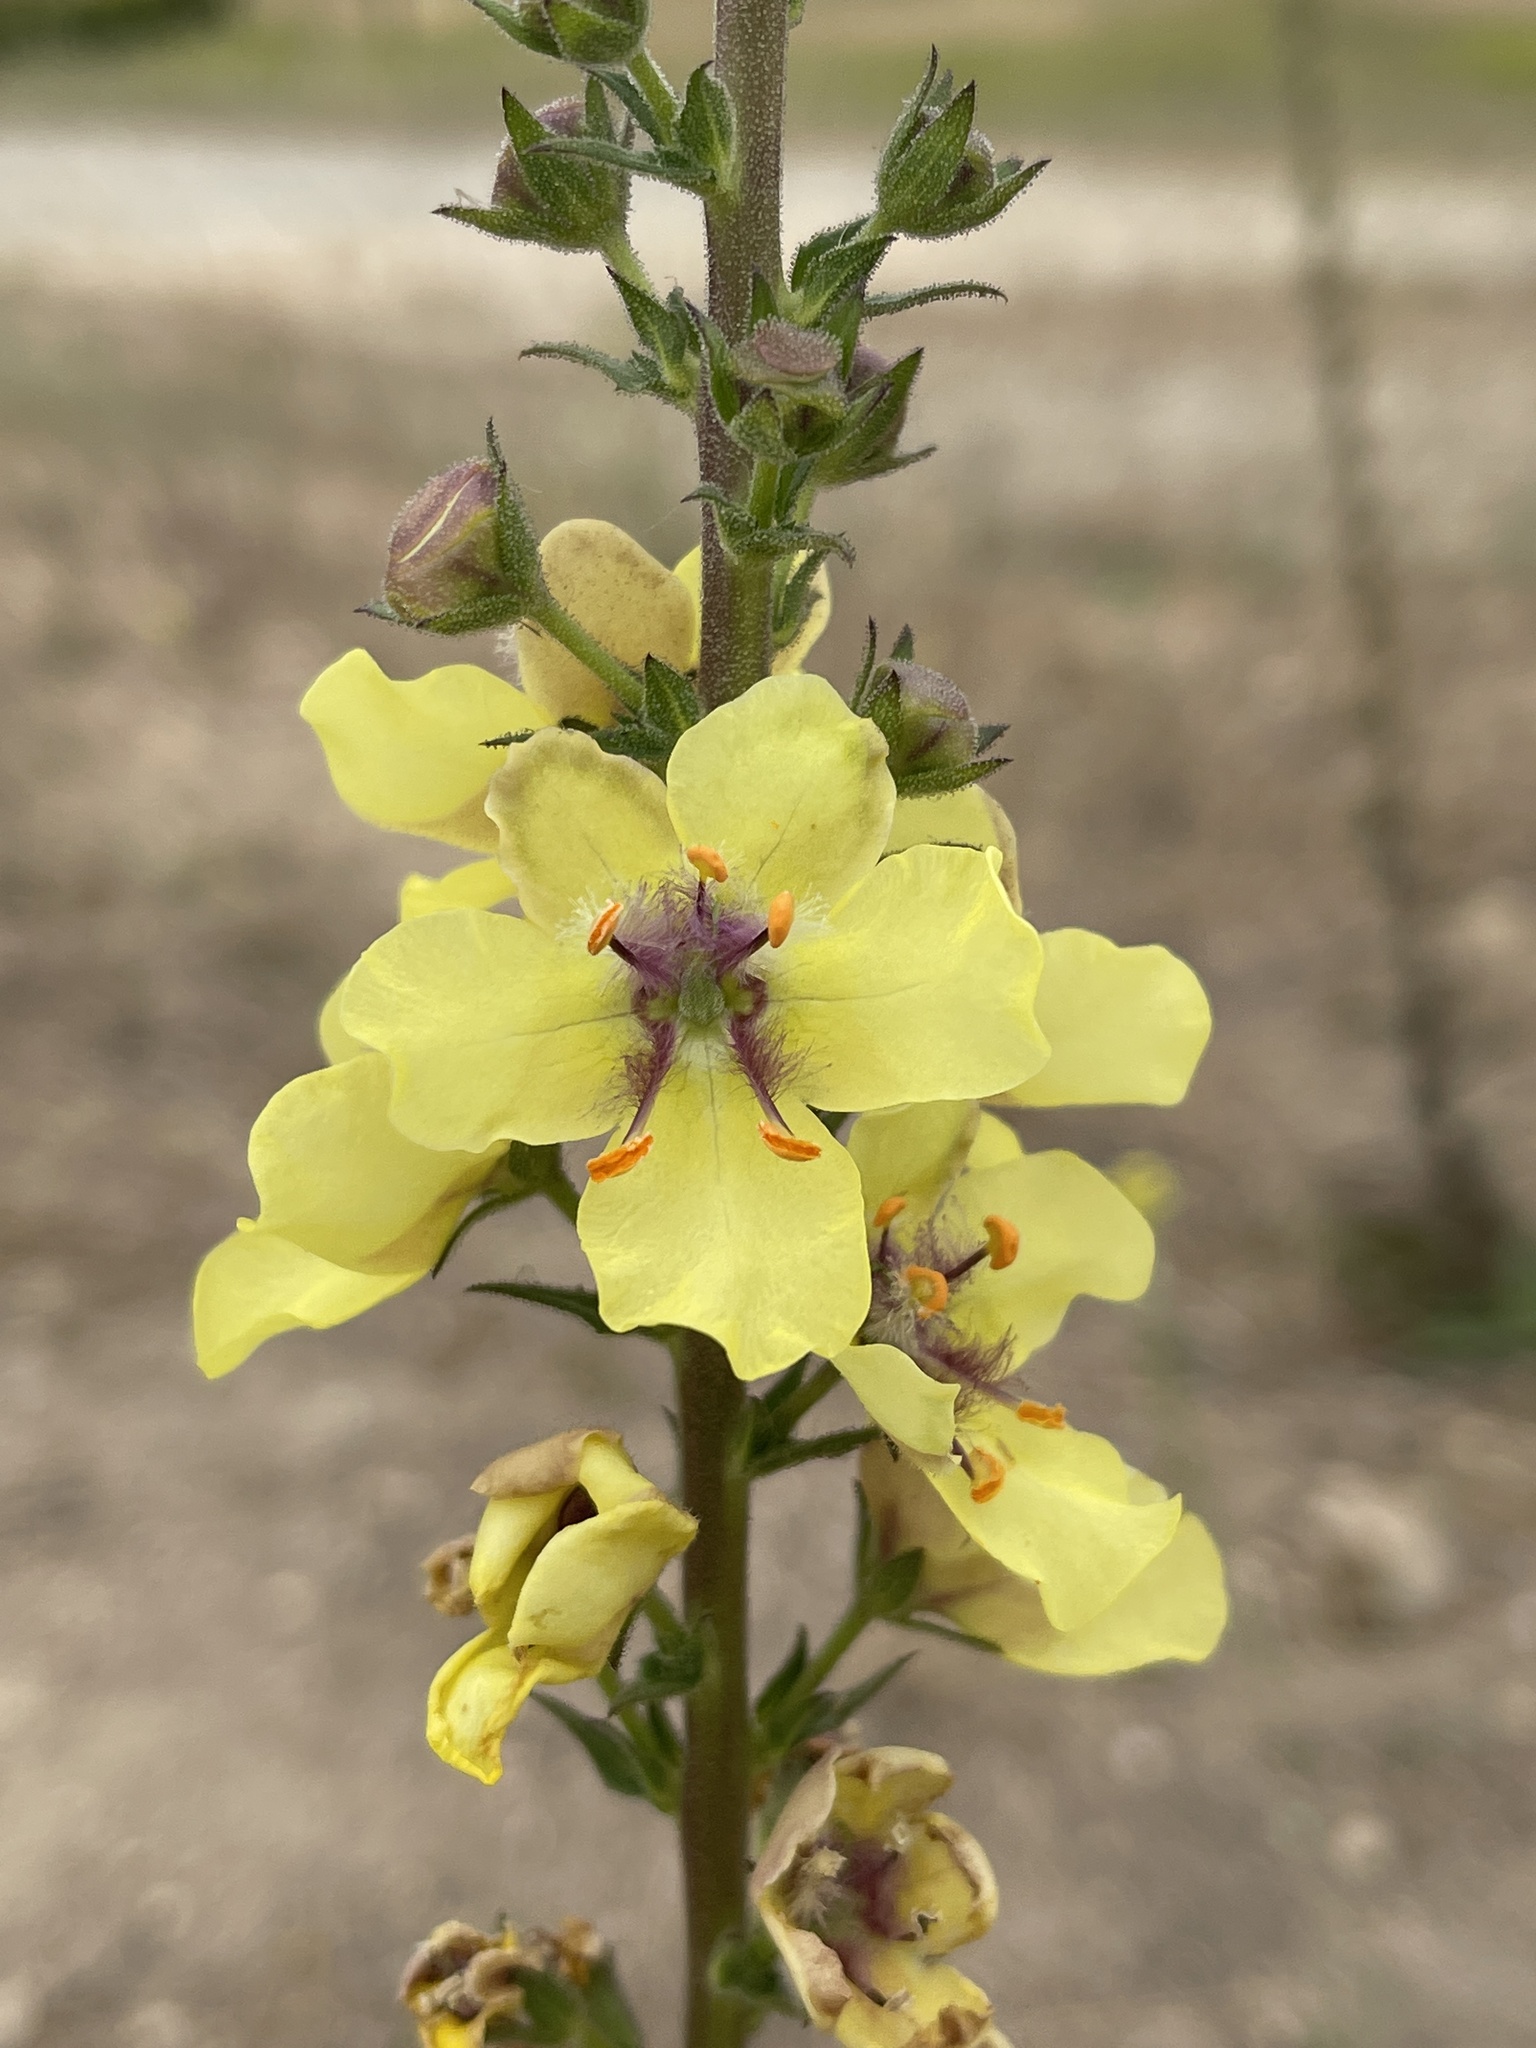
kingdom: Plantae
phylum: Tracheophyta
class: Magnoliopsida
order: Lamiales
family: Scrophulariaceae
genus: Verbascum
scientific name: Verbascum virgatum
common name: Twiggy mullein
